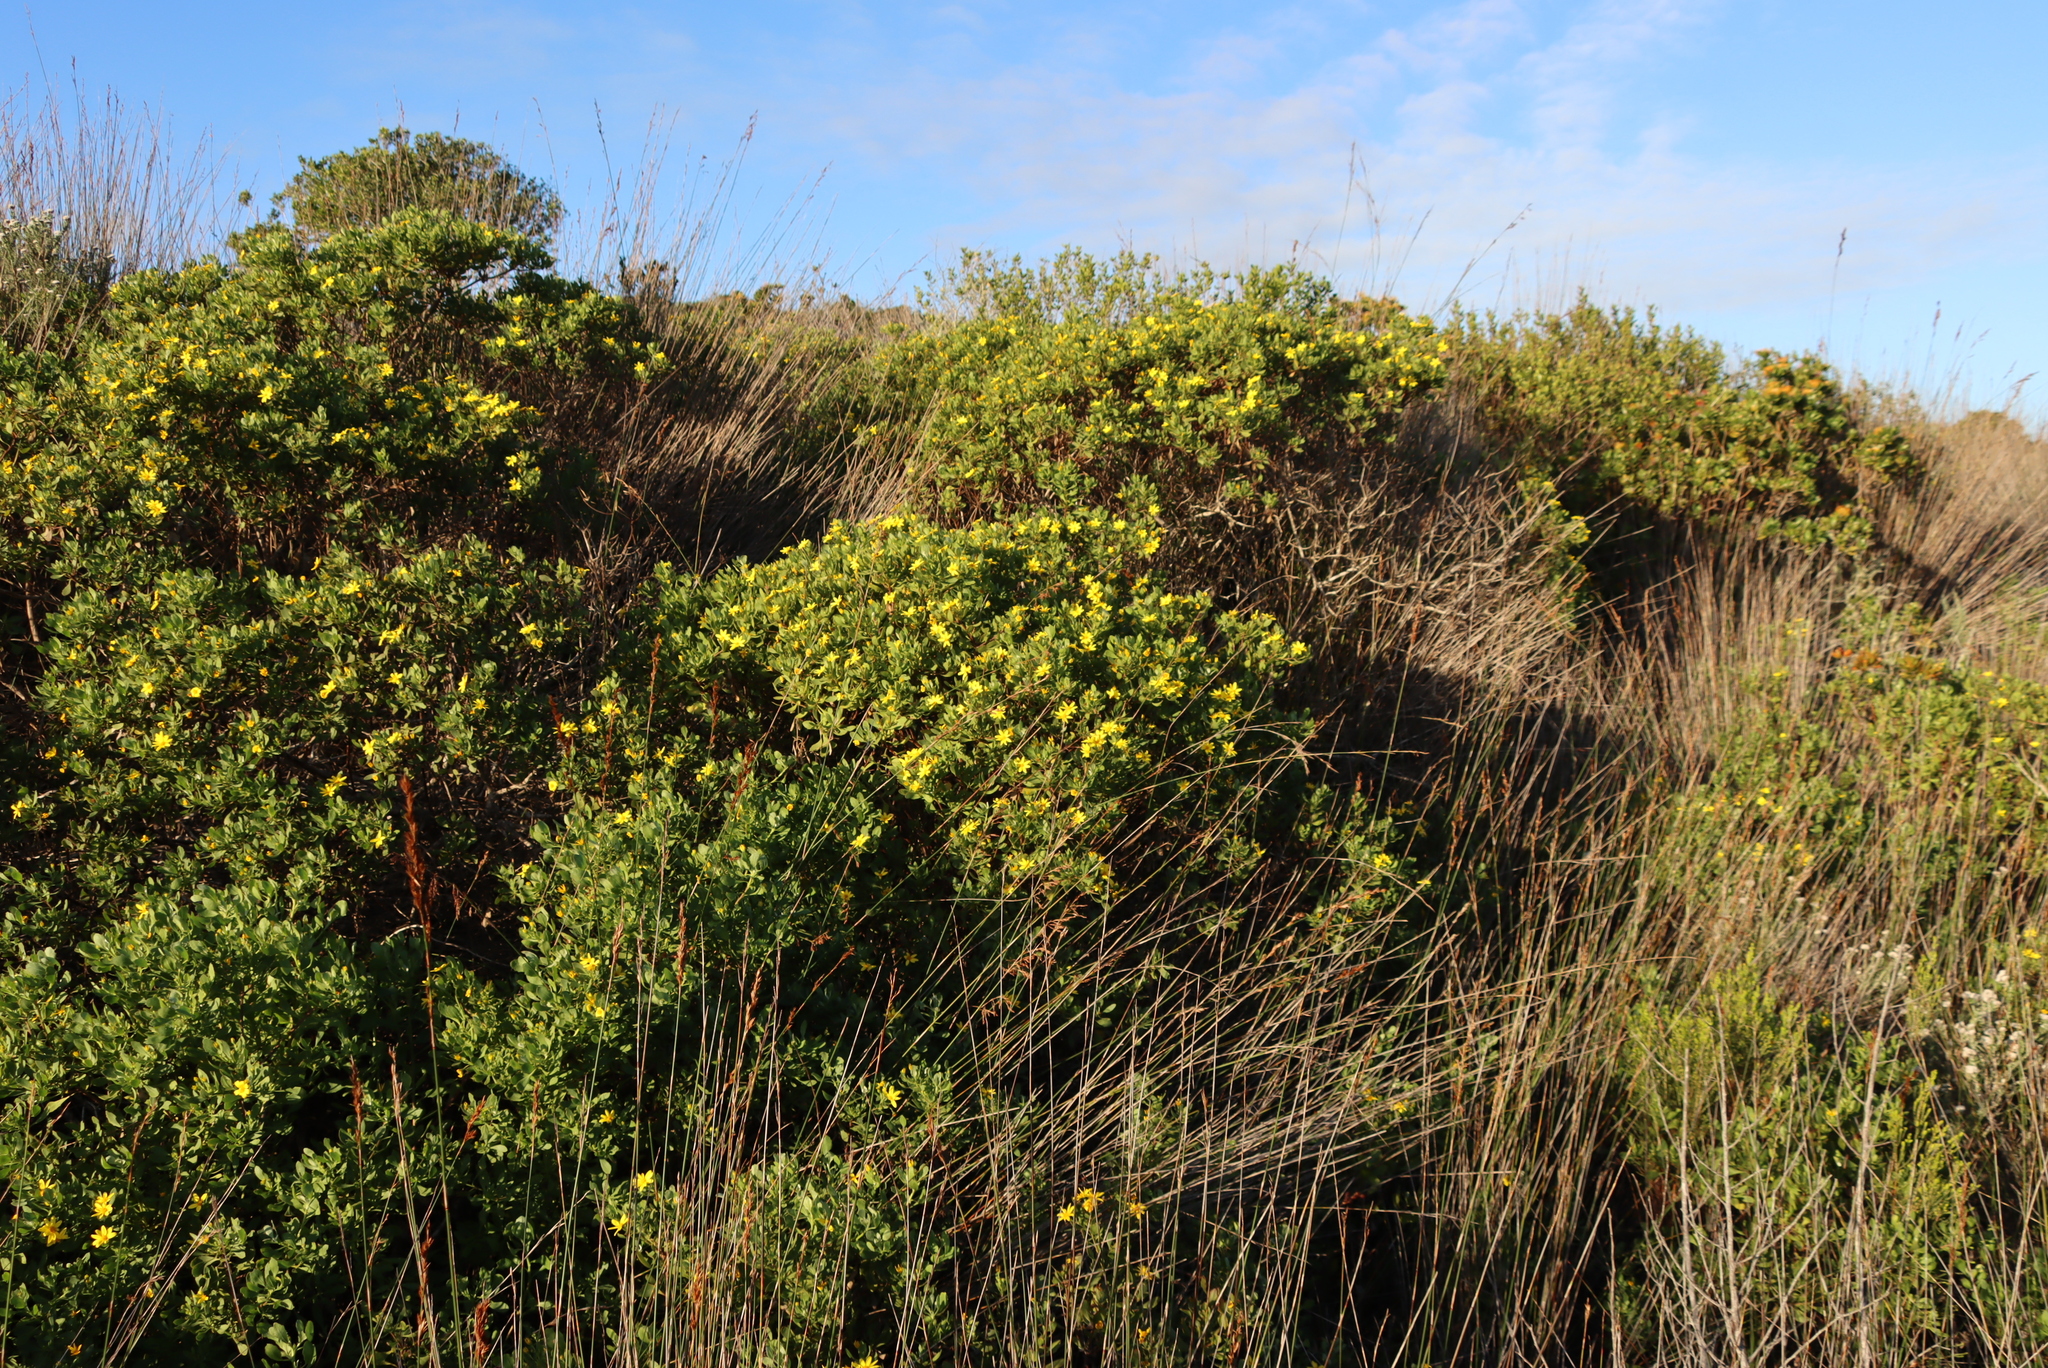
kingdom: Plantae
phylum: Tracheophyta
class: Magnoliopsida
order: Asterales
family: Asteraceae
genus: Osteospermum
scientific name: Osteospermum moniliferum
